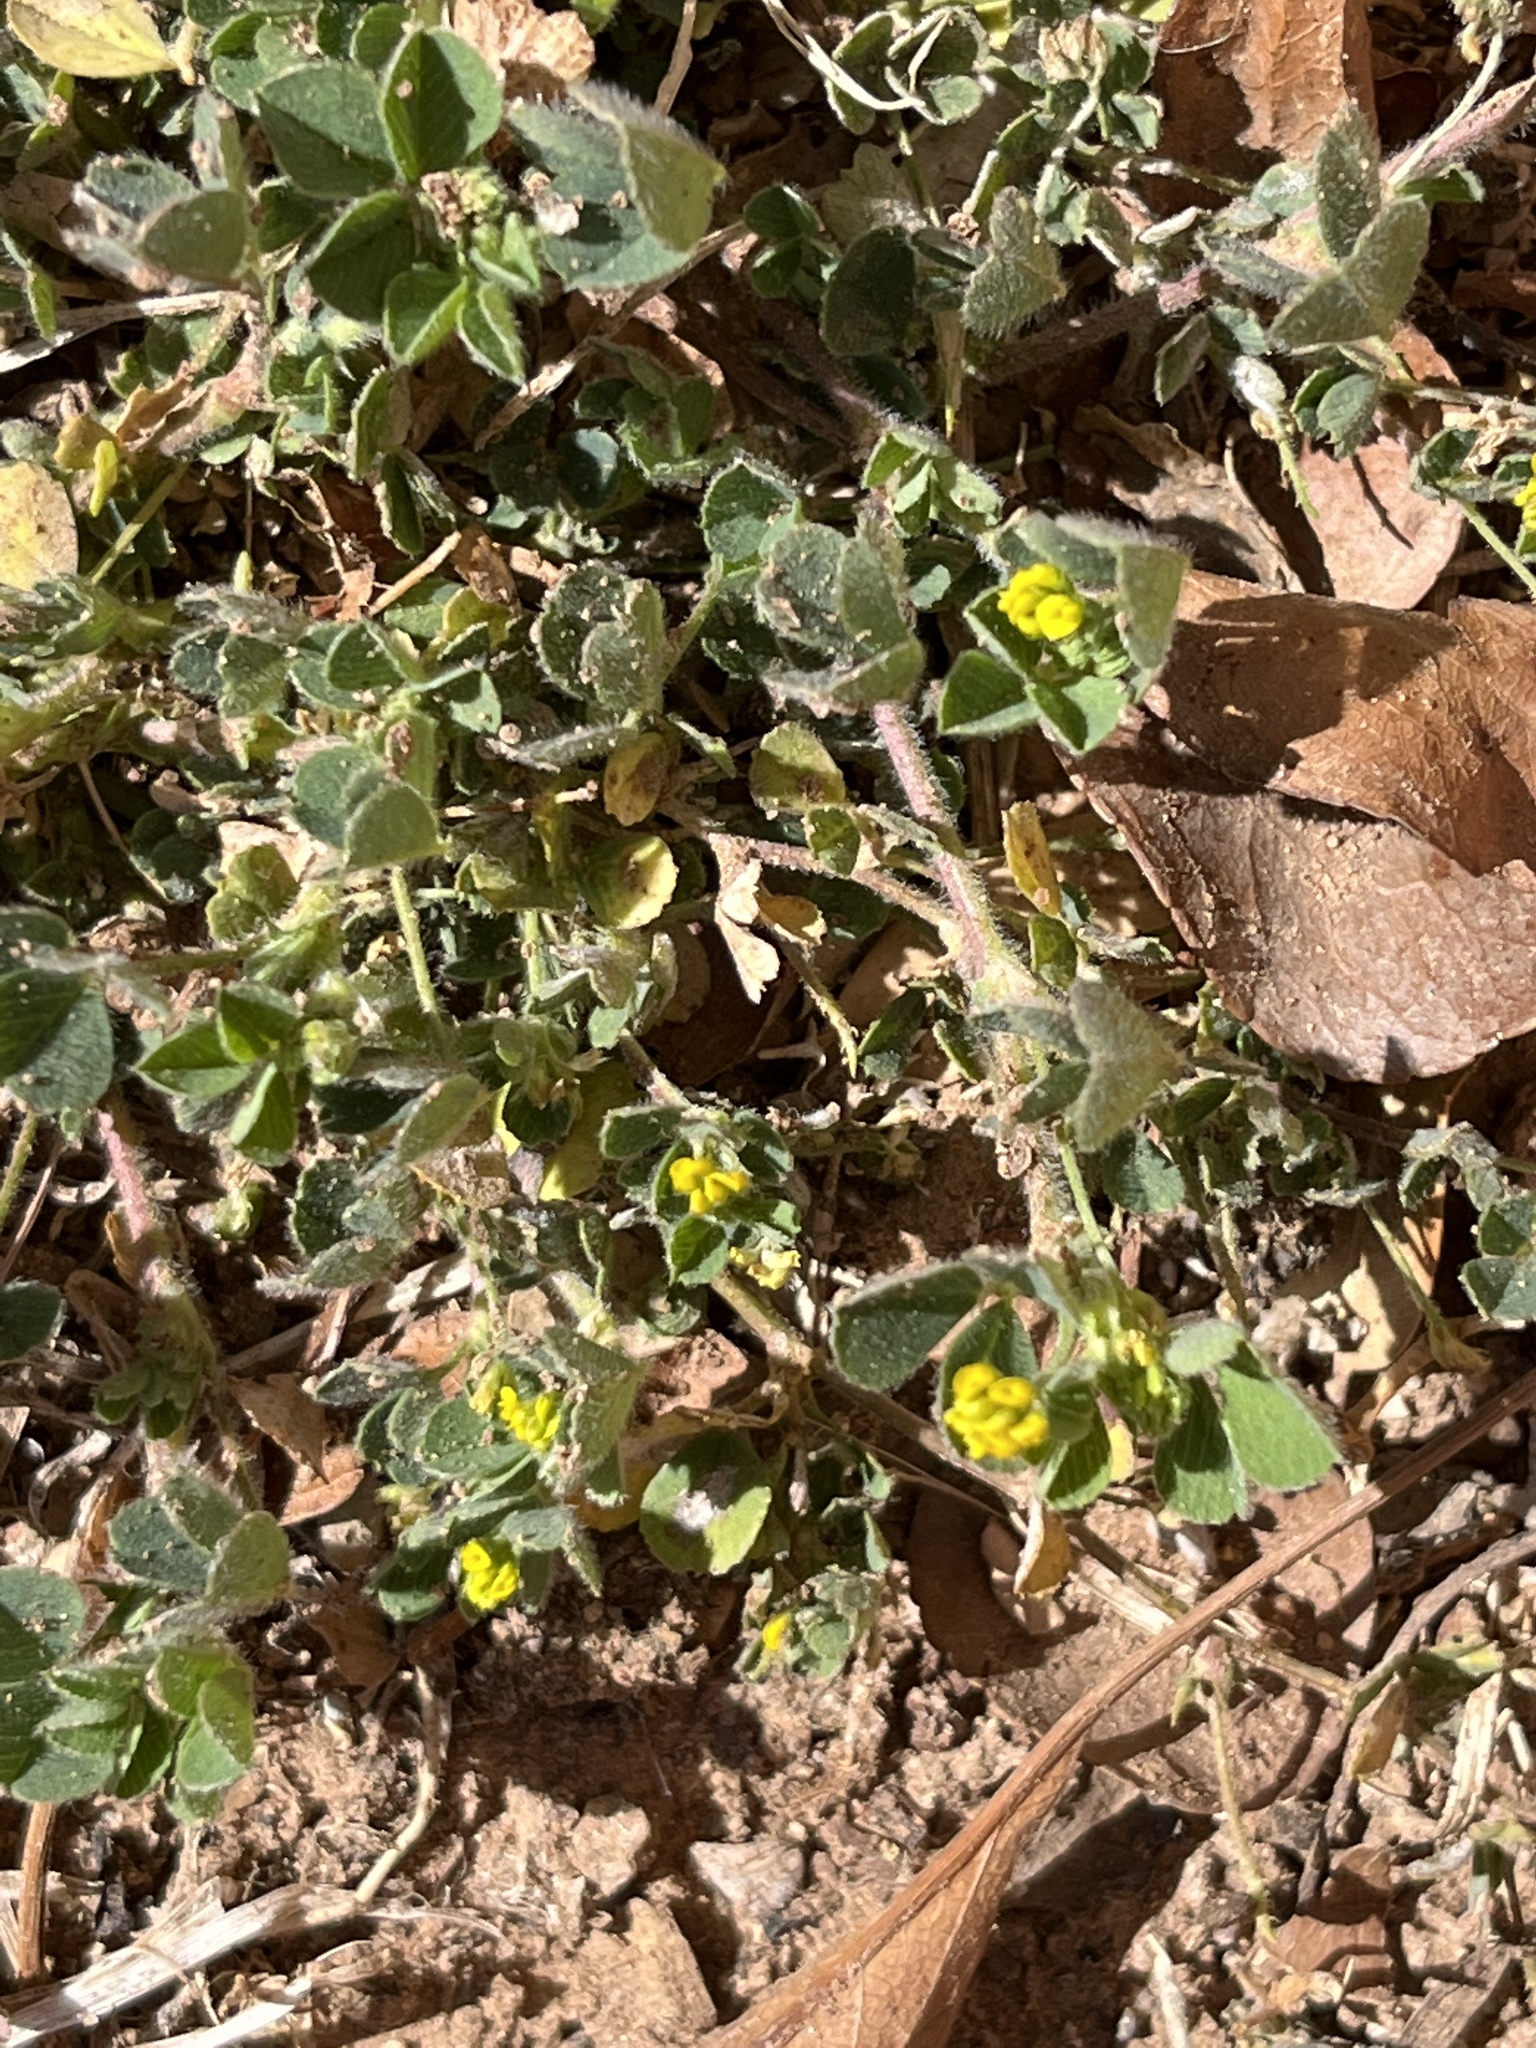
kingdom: Plantae
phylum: Tracheophyta
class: Magnoliopsida
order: Fabales
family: Fabaceae
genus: Medicago
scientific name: Medicago lupulina
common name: Black medick
